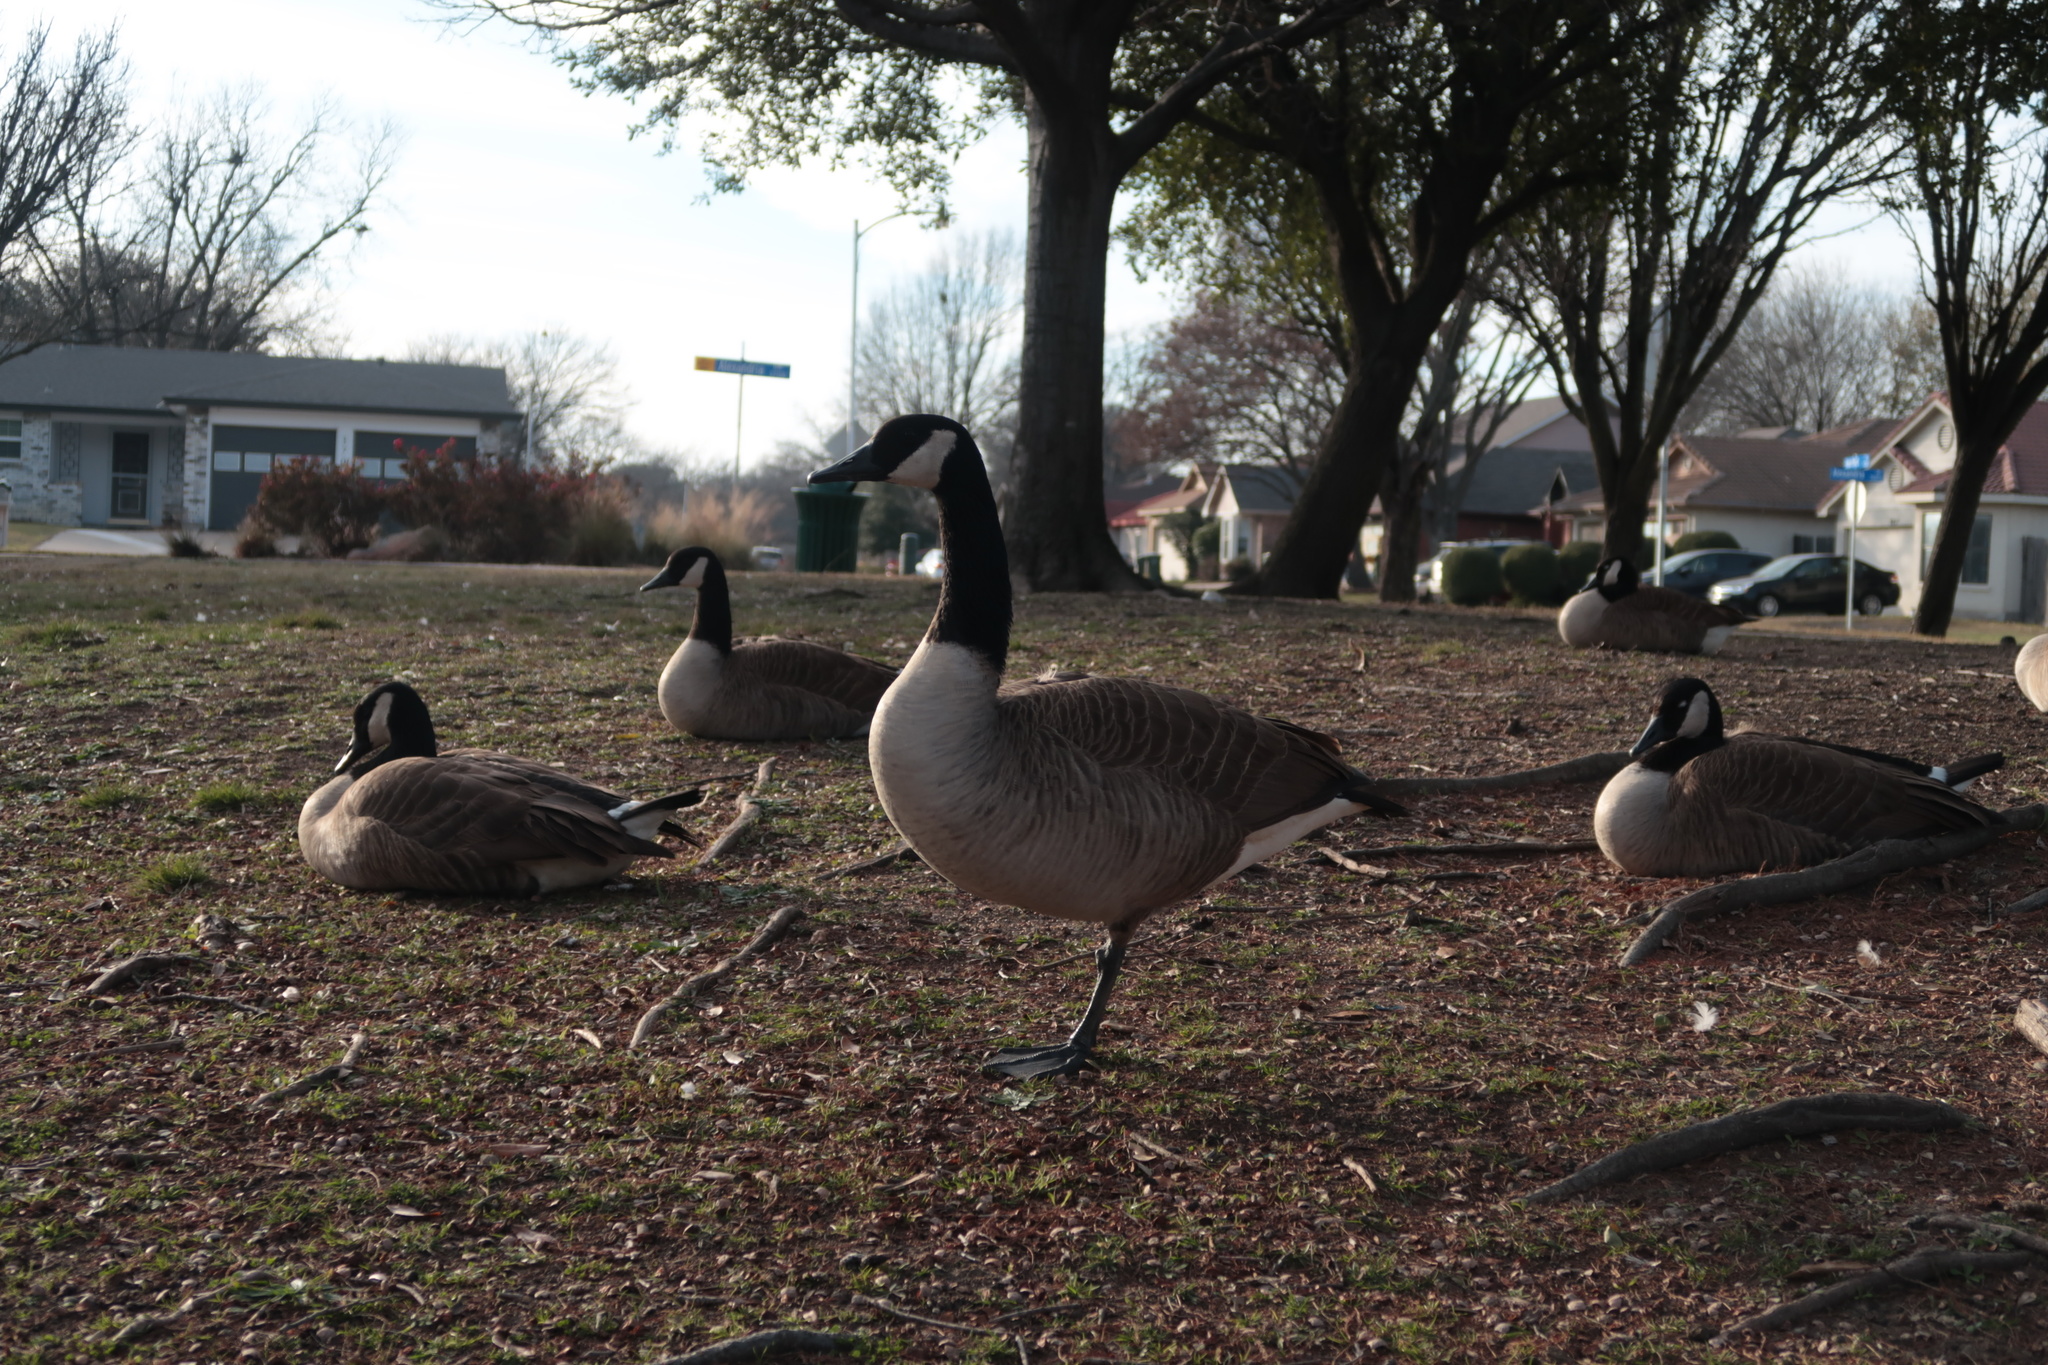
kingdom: Animalia
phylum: Chordata
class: Aves
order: Anseriformes
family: Anatidae
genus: Branta
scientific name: Branta canadensis
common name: Canada goose
